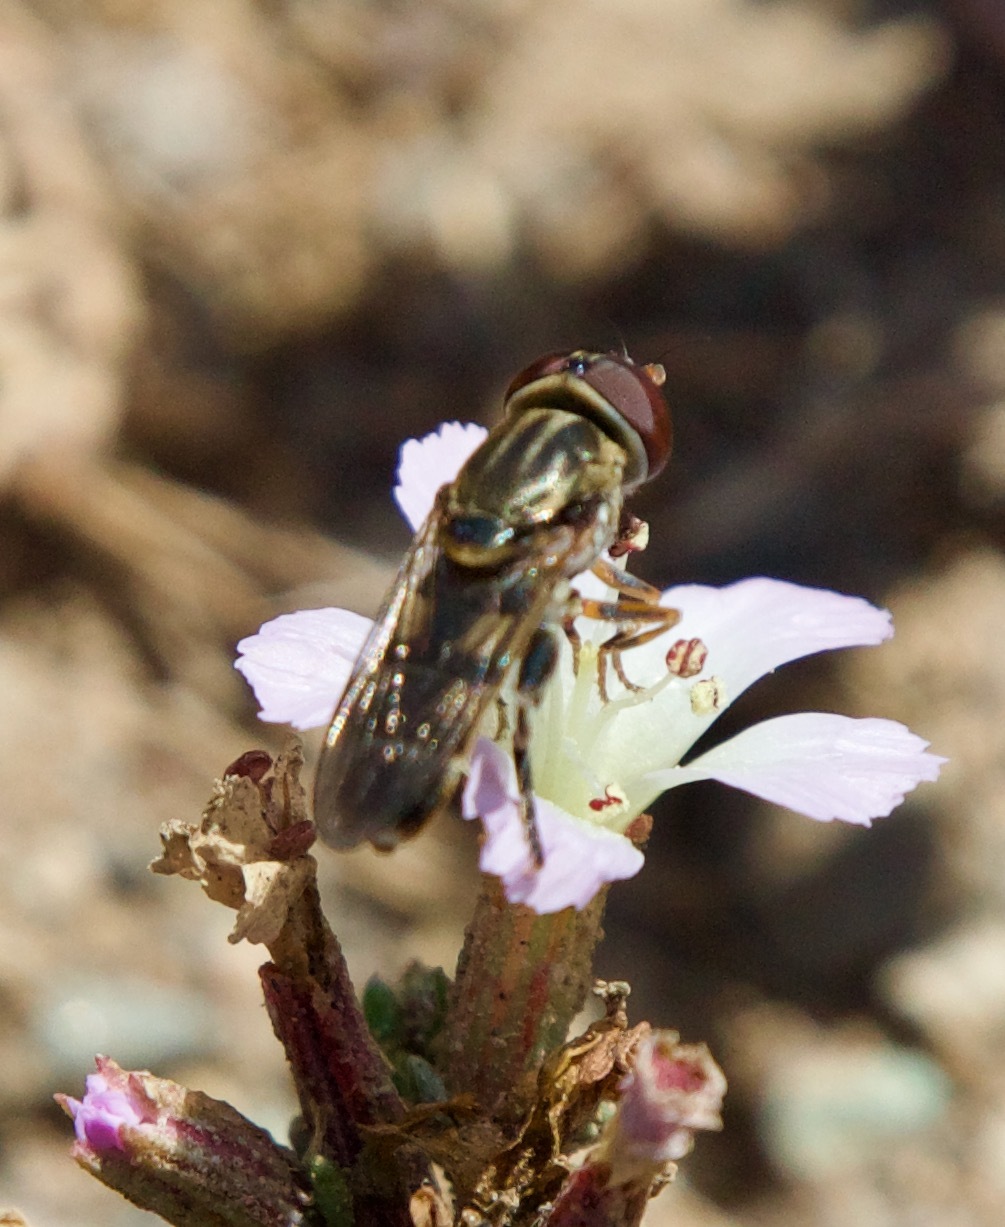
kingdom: Animalia
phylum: Arthropoda
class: Insecta
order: Diptera
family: Syrphidae
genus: Tropidia
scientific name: Tropidia flavimanus
